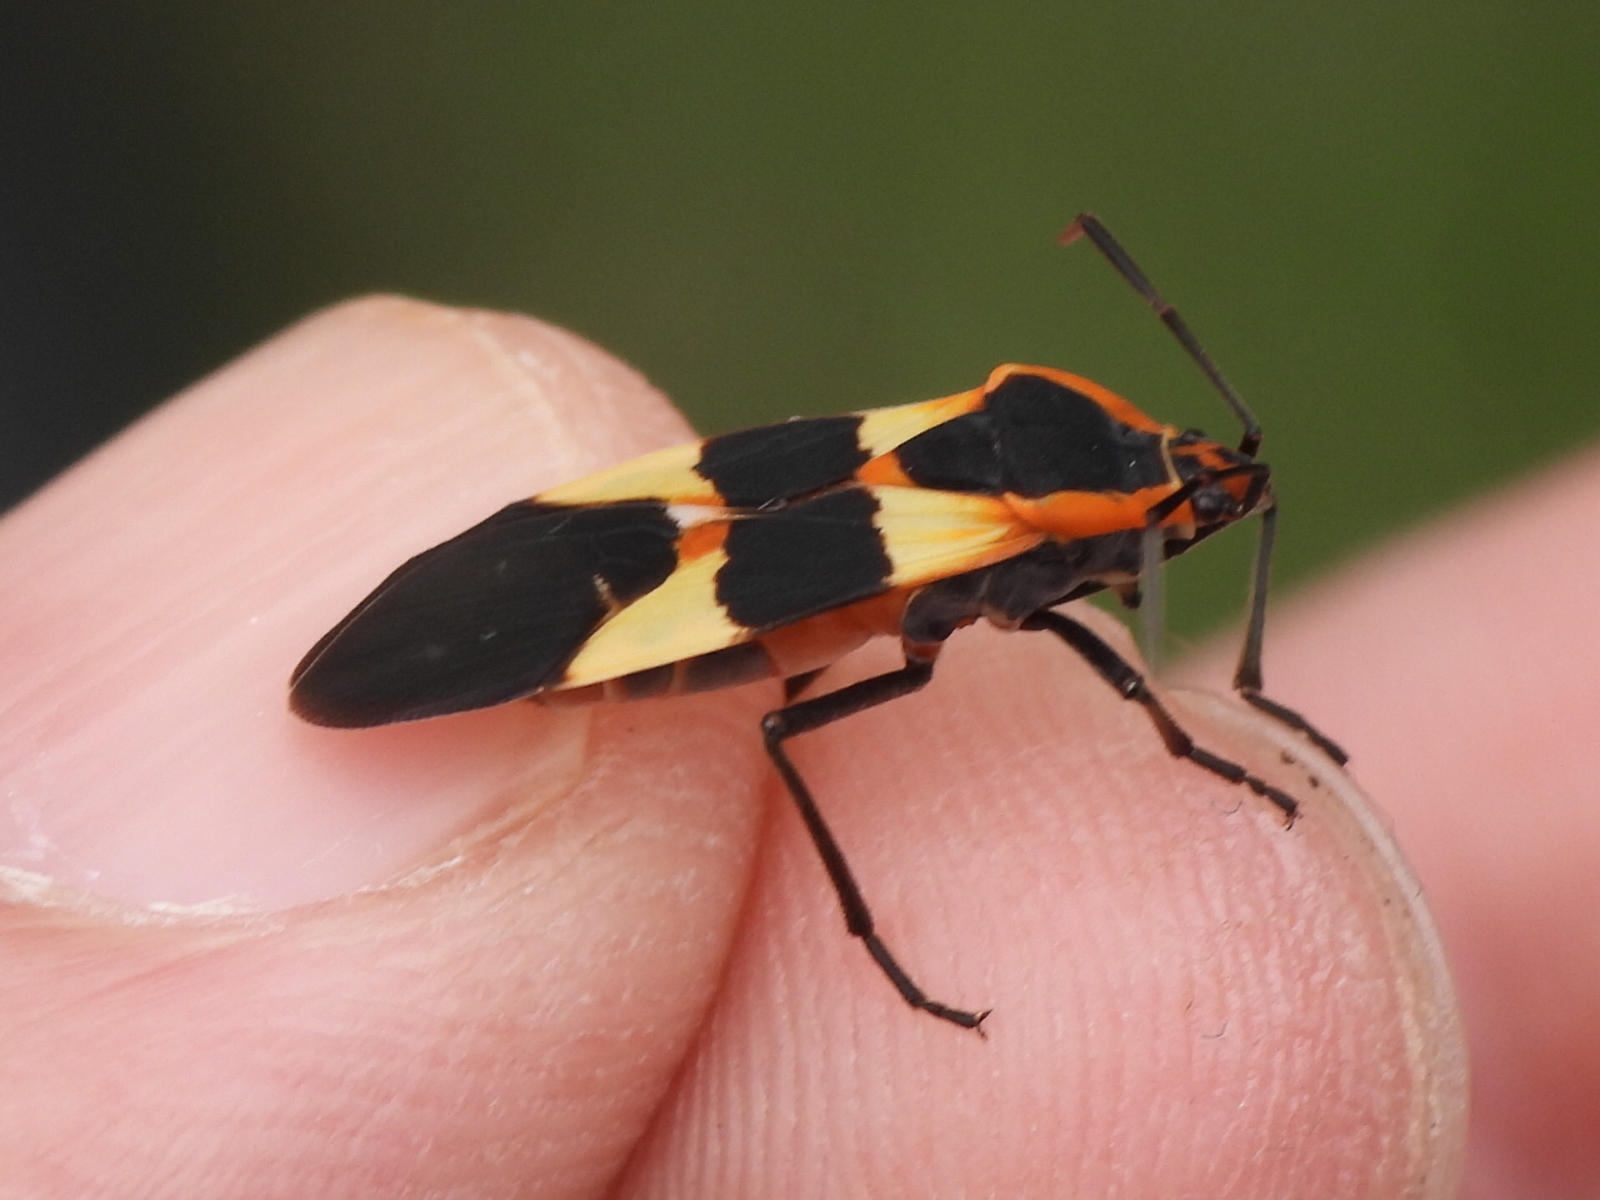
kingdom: Animalia
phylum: Arthropoda
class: Insecta
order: Hemiptera
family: Lygaeidae
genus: Oncopeltus
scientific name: Oncopeltus fasciatus
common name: Large milkweed bug
